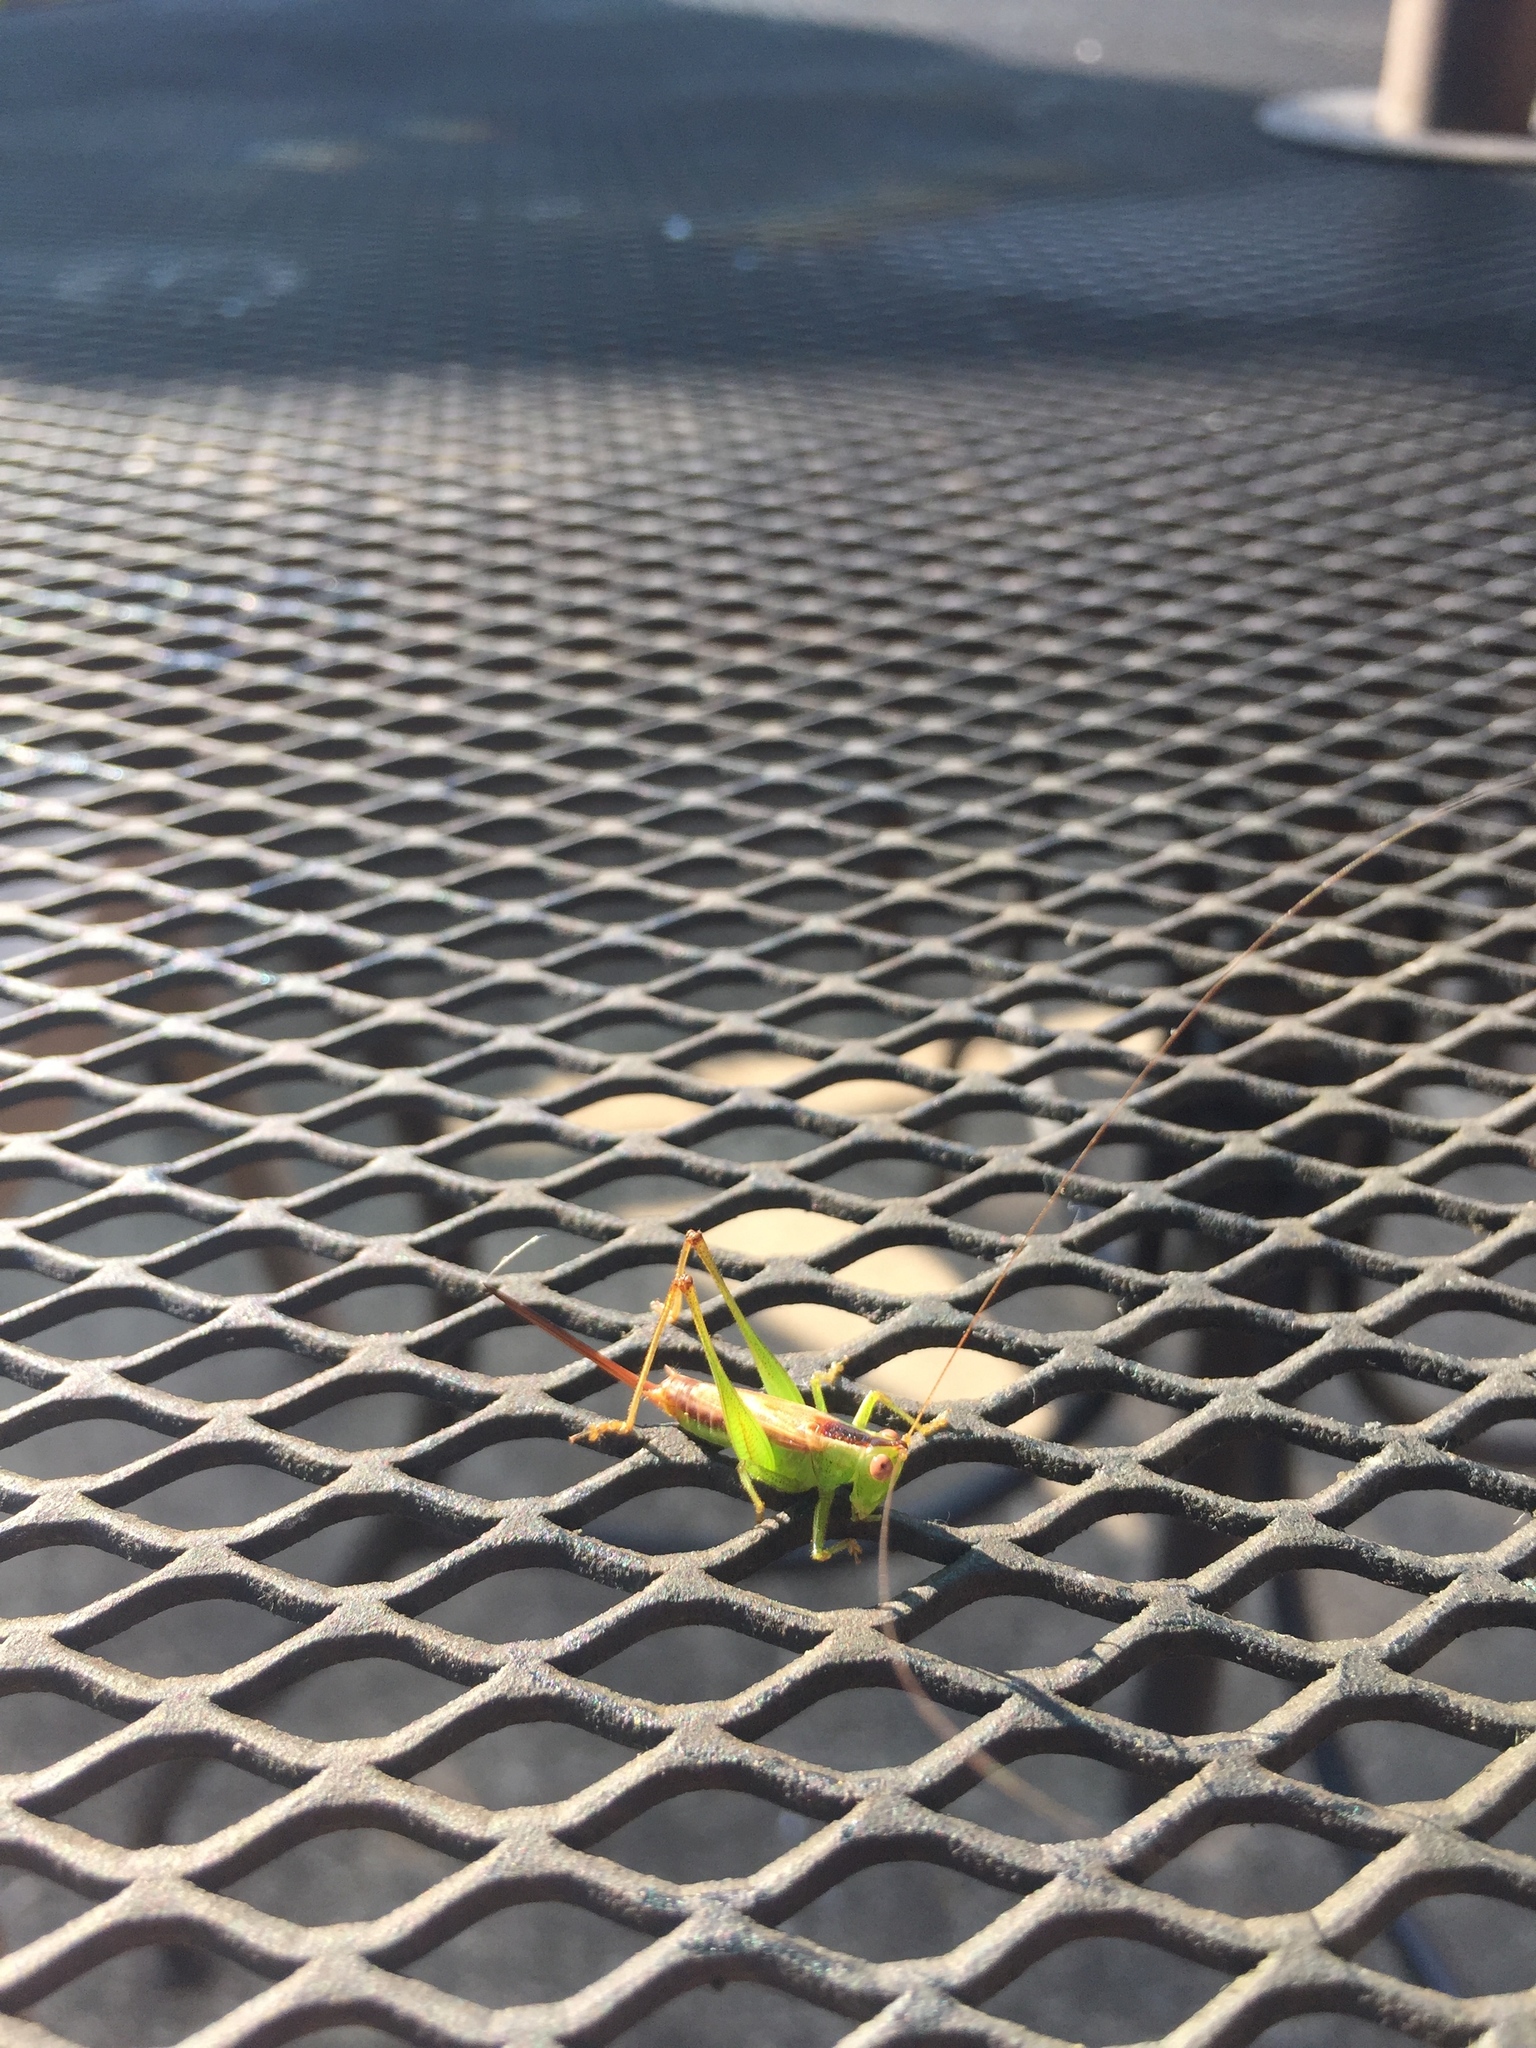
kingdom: Animalia
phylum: Arthropoda
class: Insecta
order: Orthoptera
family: Tettigoniidae
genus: Conocephalus
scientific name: Conocephalus brevipennis
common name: Short-winged meadow katydid
